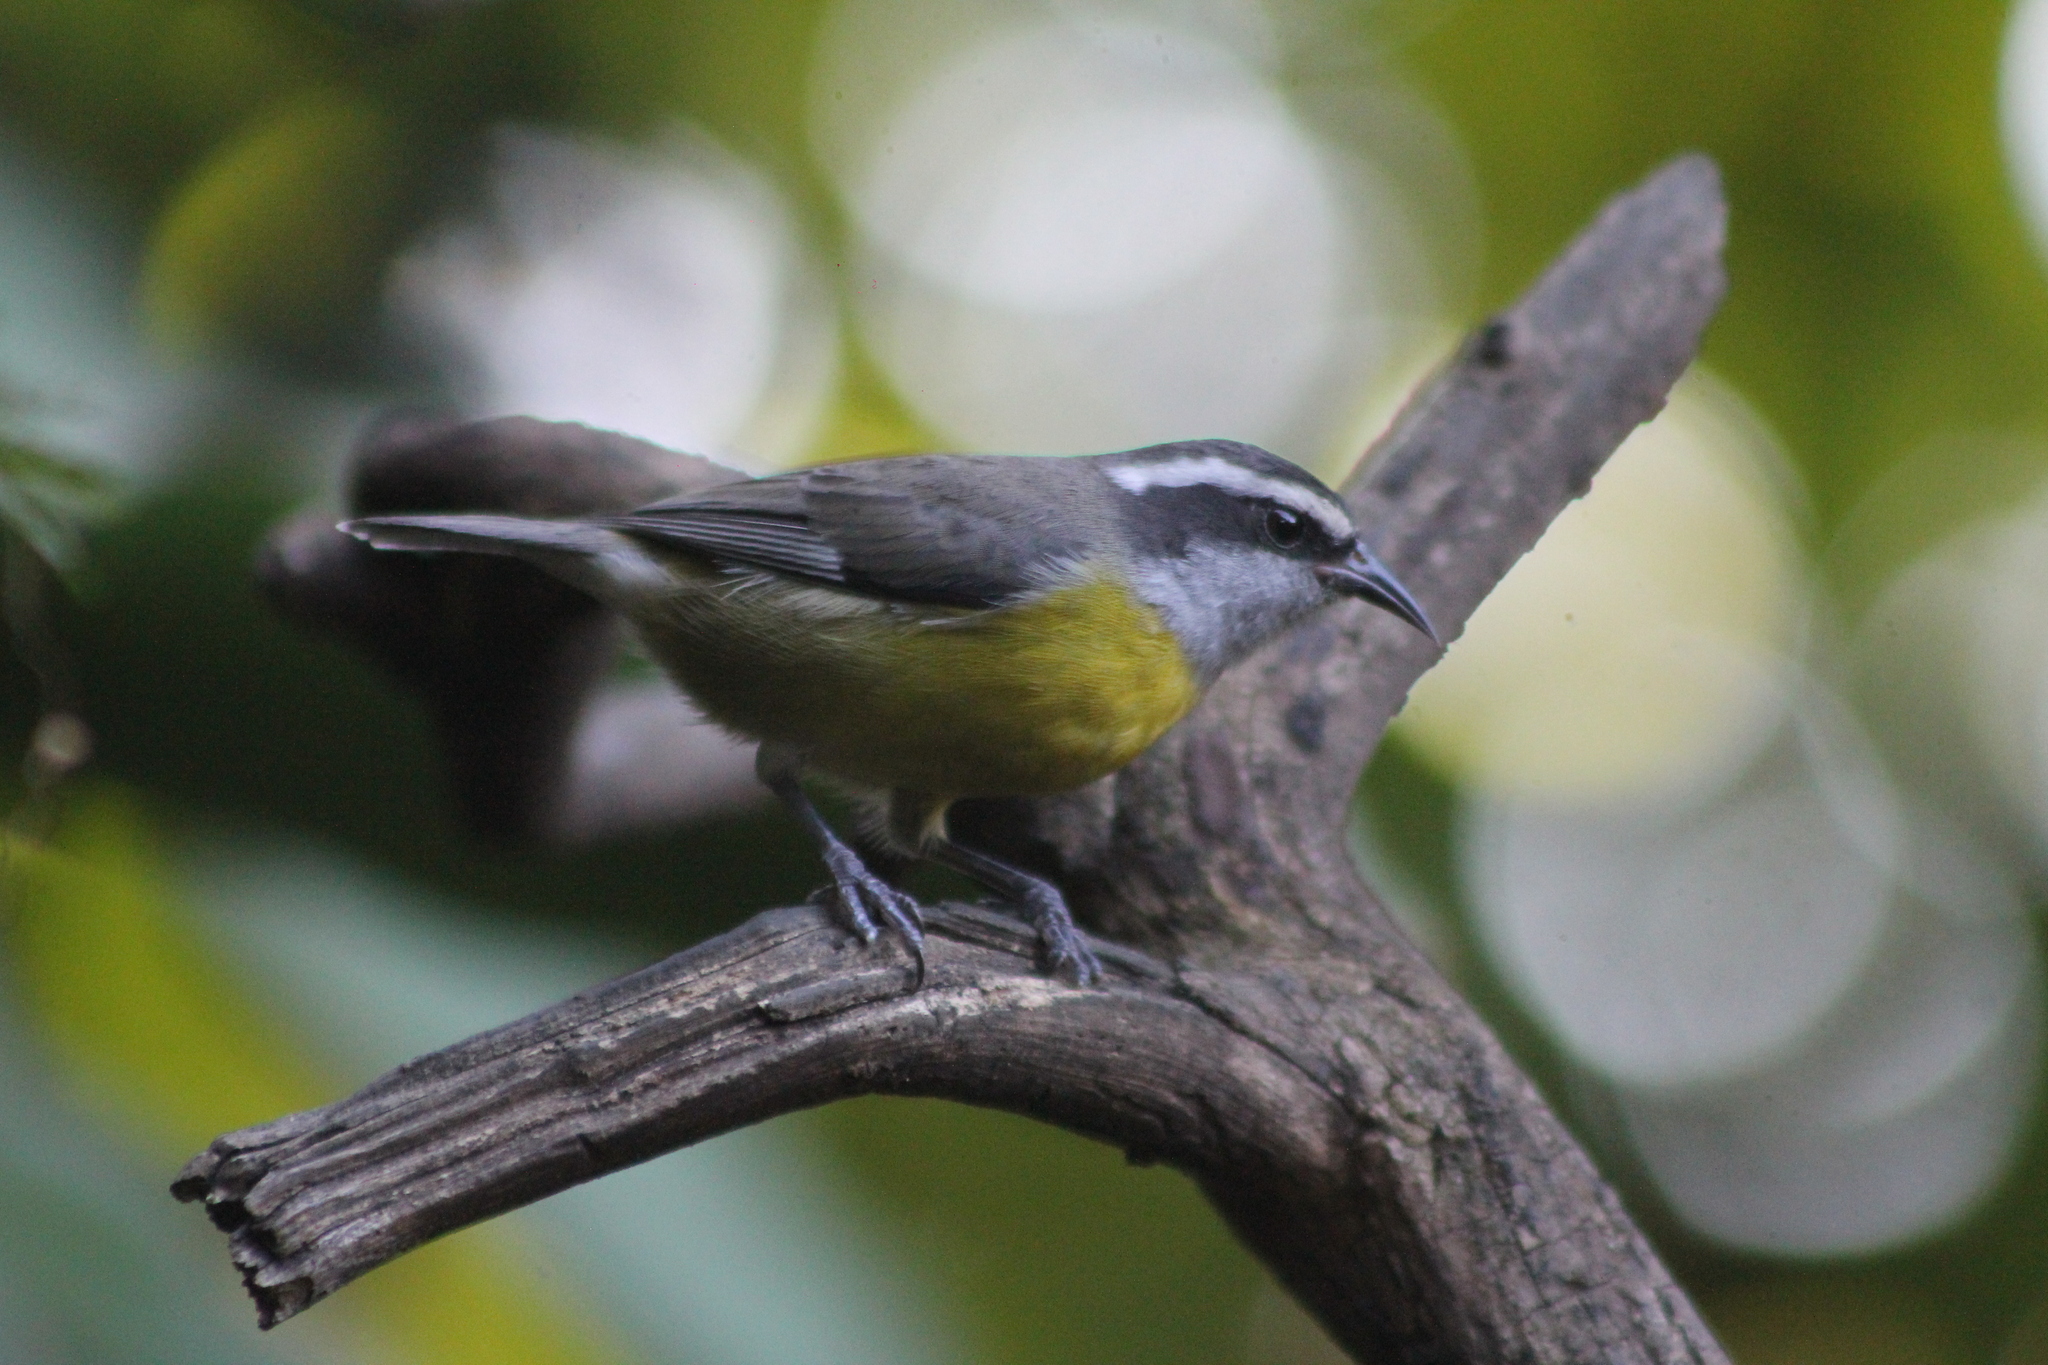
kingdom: Animalia
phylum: Chordata
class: Aves
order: Passeriformes
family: Thraupidae
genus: Coereba
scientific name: Coereba flaveola
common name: Bananaquit
